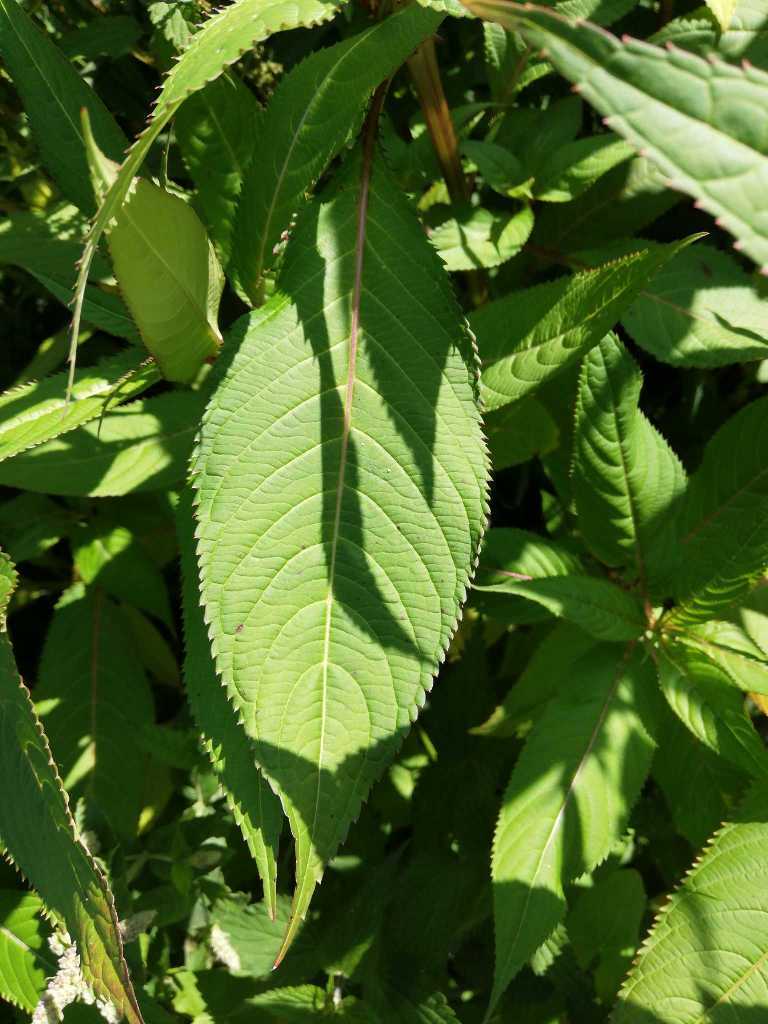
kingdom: Plantae
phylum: Tracheophyta
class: Magnoliopsida
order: Ericales
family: Balsaminaceae
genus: Impatiens
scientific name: Impatiens glandulifera
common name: Himalayan balsam
